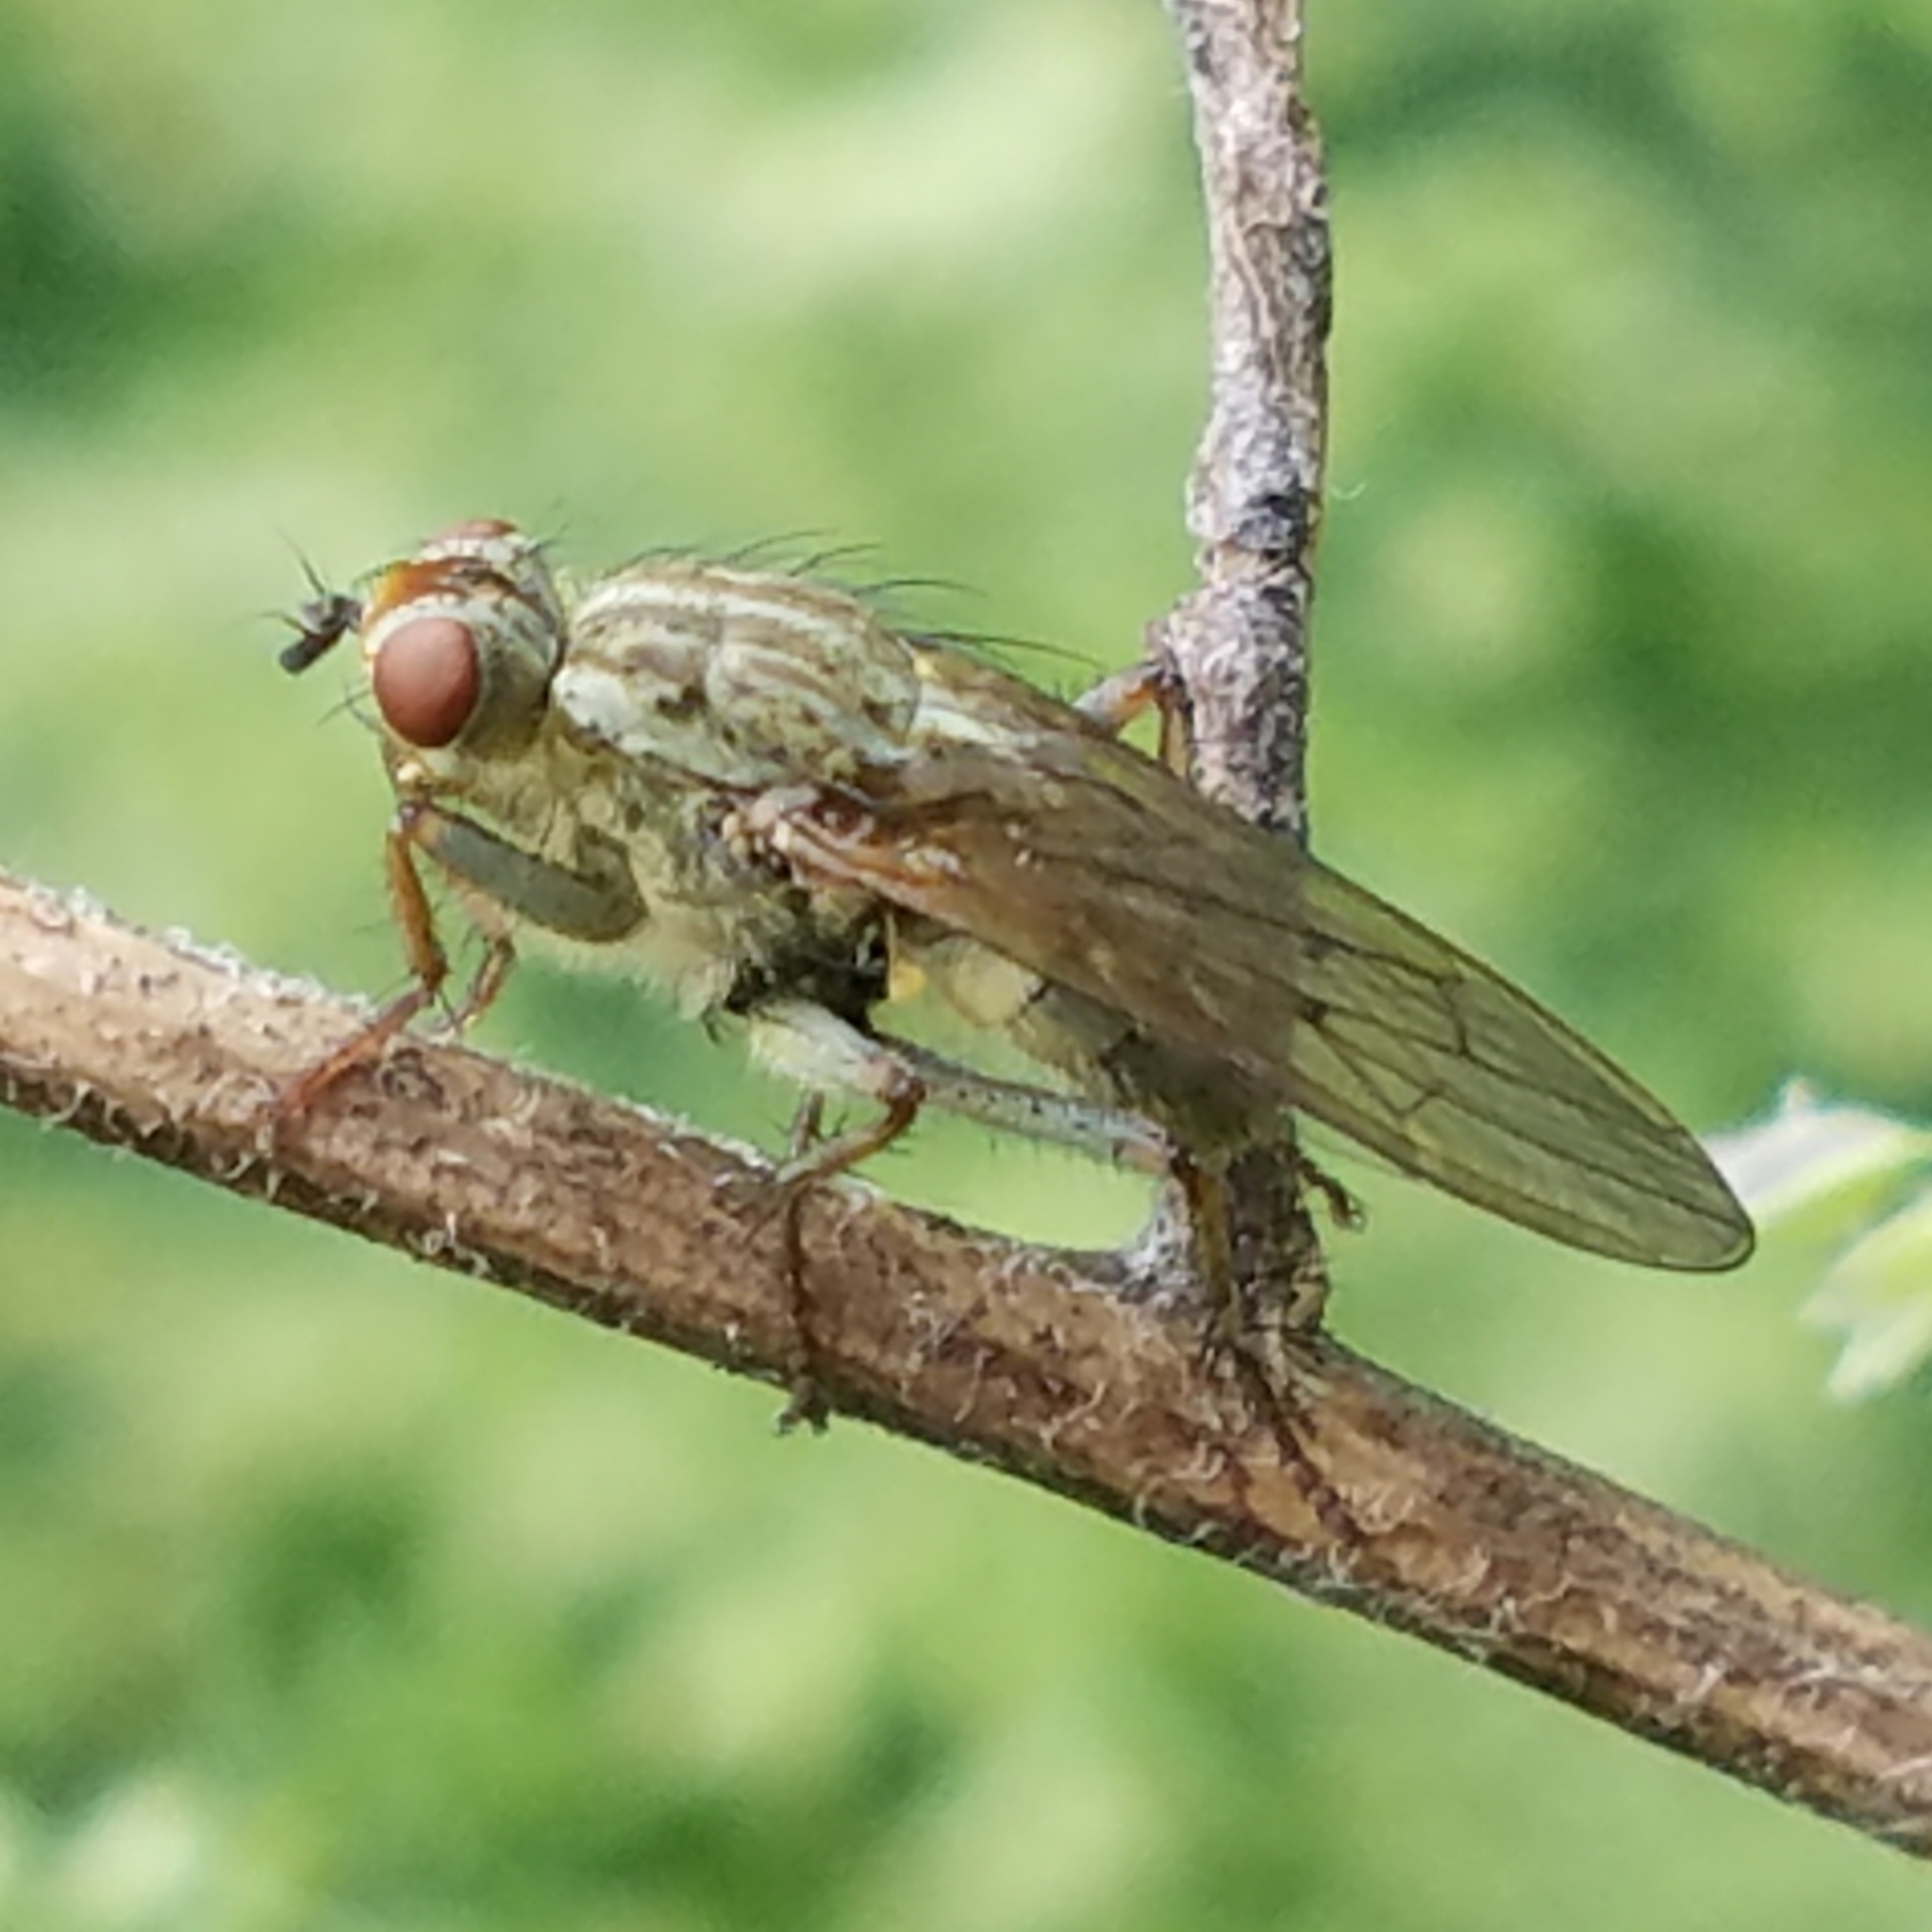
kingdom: Animalia
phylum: Arthropoda
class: Insecta
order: Diptera
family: Scathophagidae
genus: Scathophaga
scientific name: Scathophaga furcata
